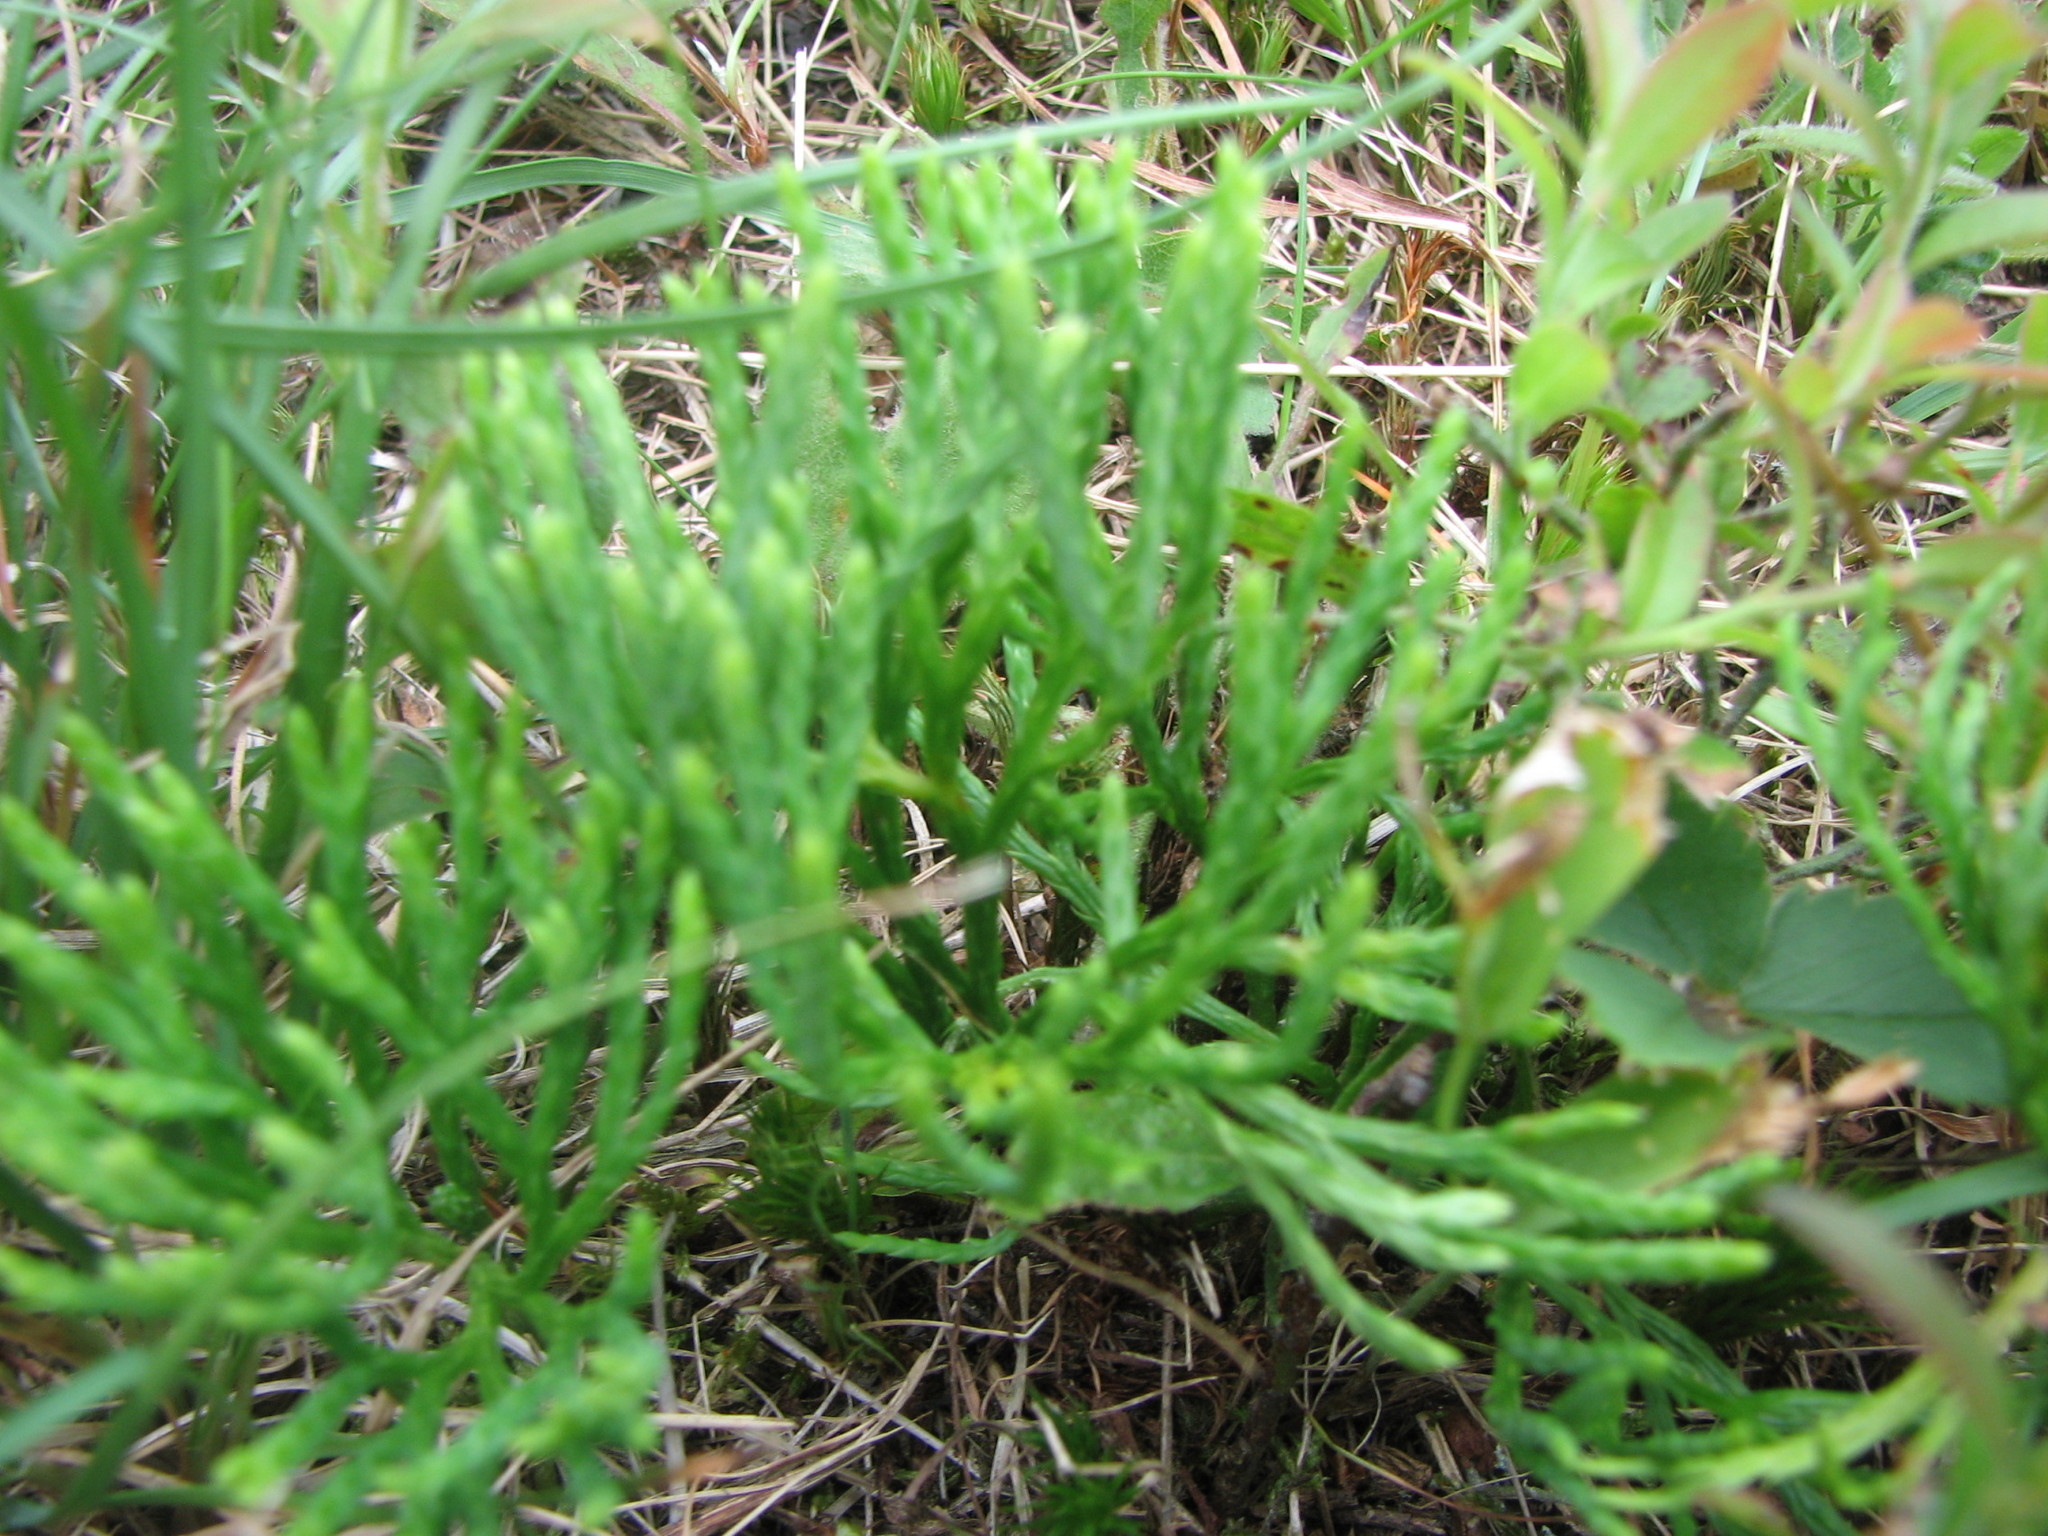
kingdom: Plantae
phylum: Tracheophyta
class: Lycopodiopsida
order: Lycopodiales
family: Lycopodiaceae
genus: Diphasiastrum
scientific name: Diphasiastrum tristachyum
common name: Blue ground-cedar
